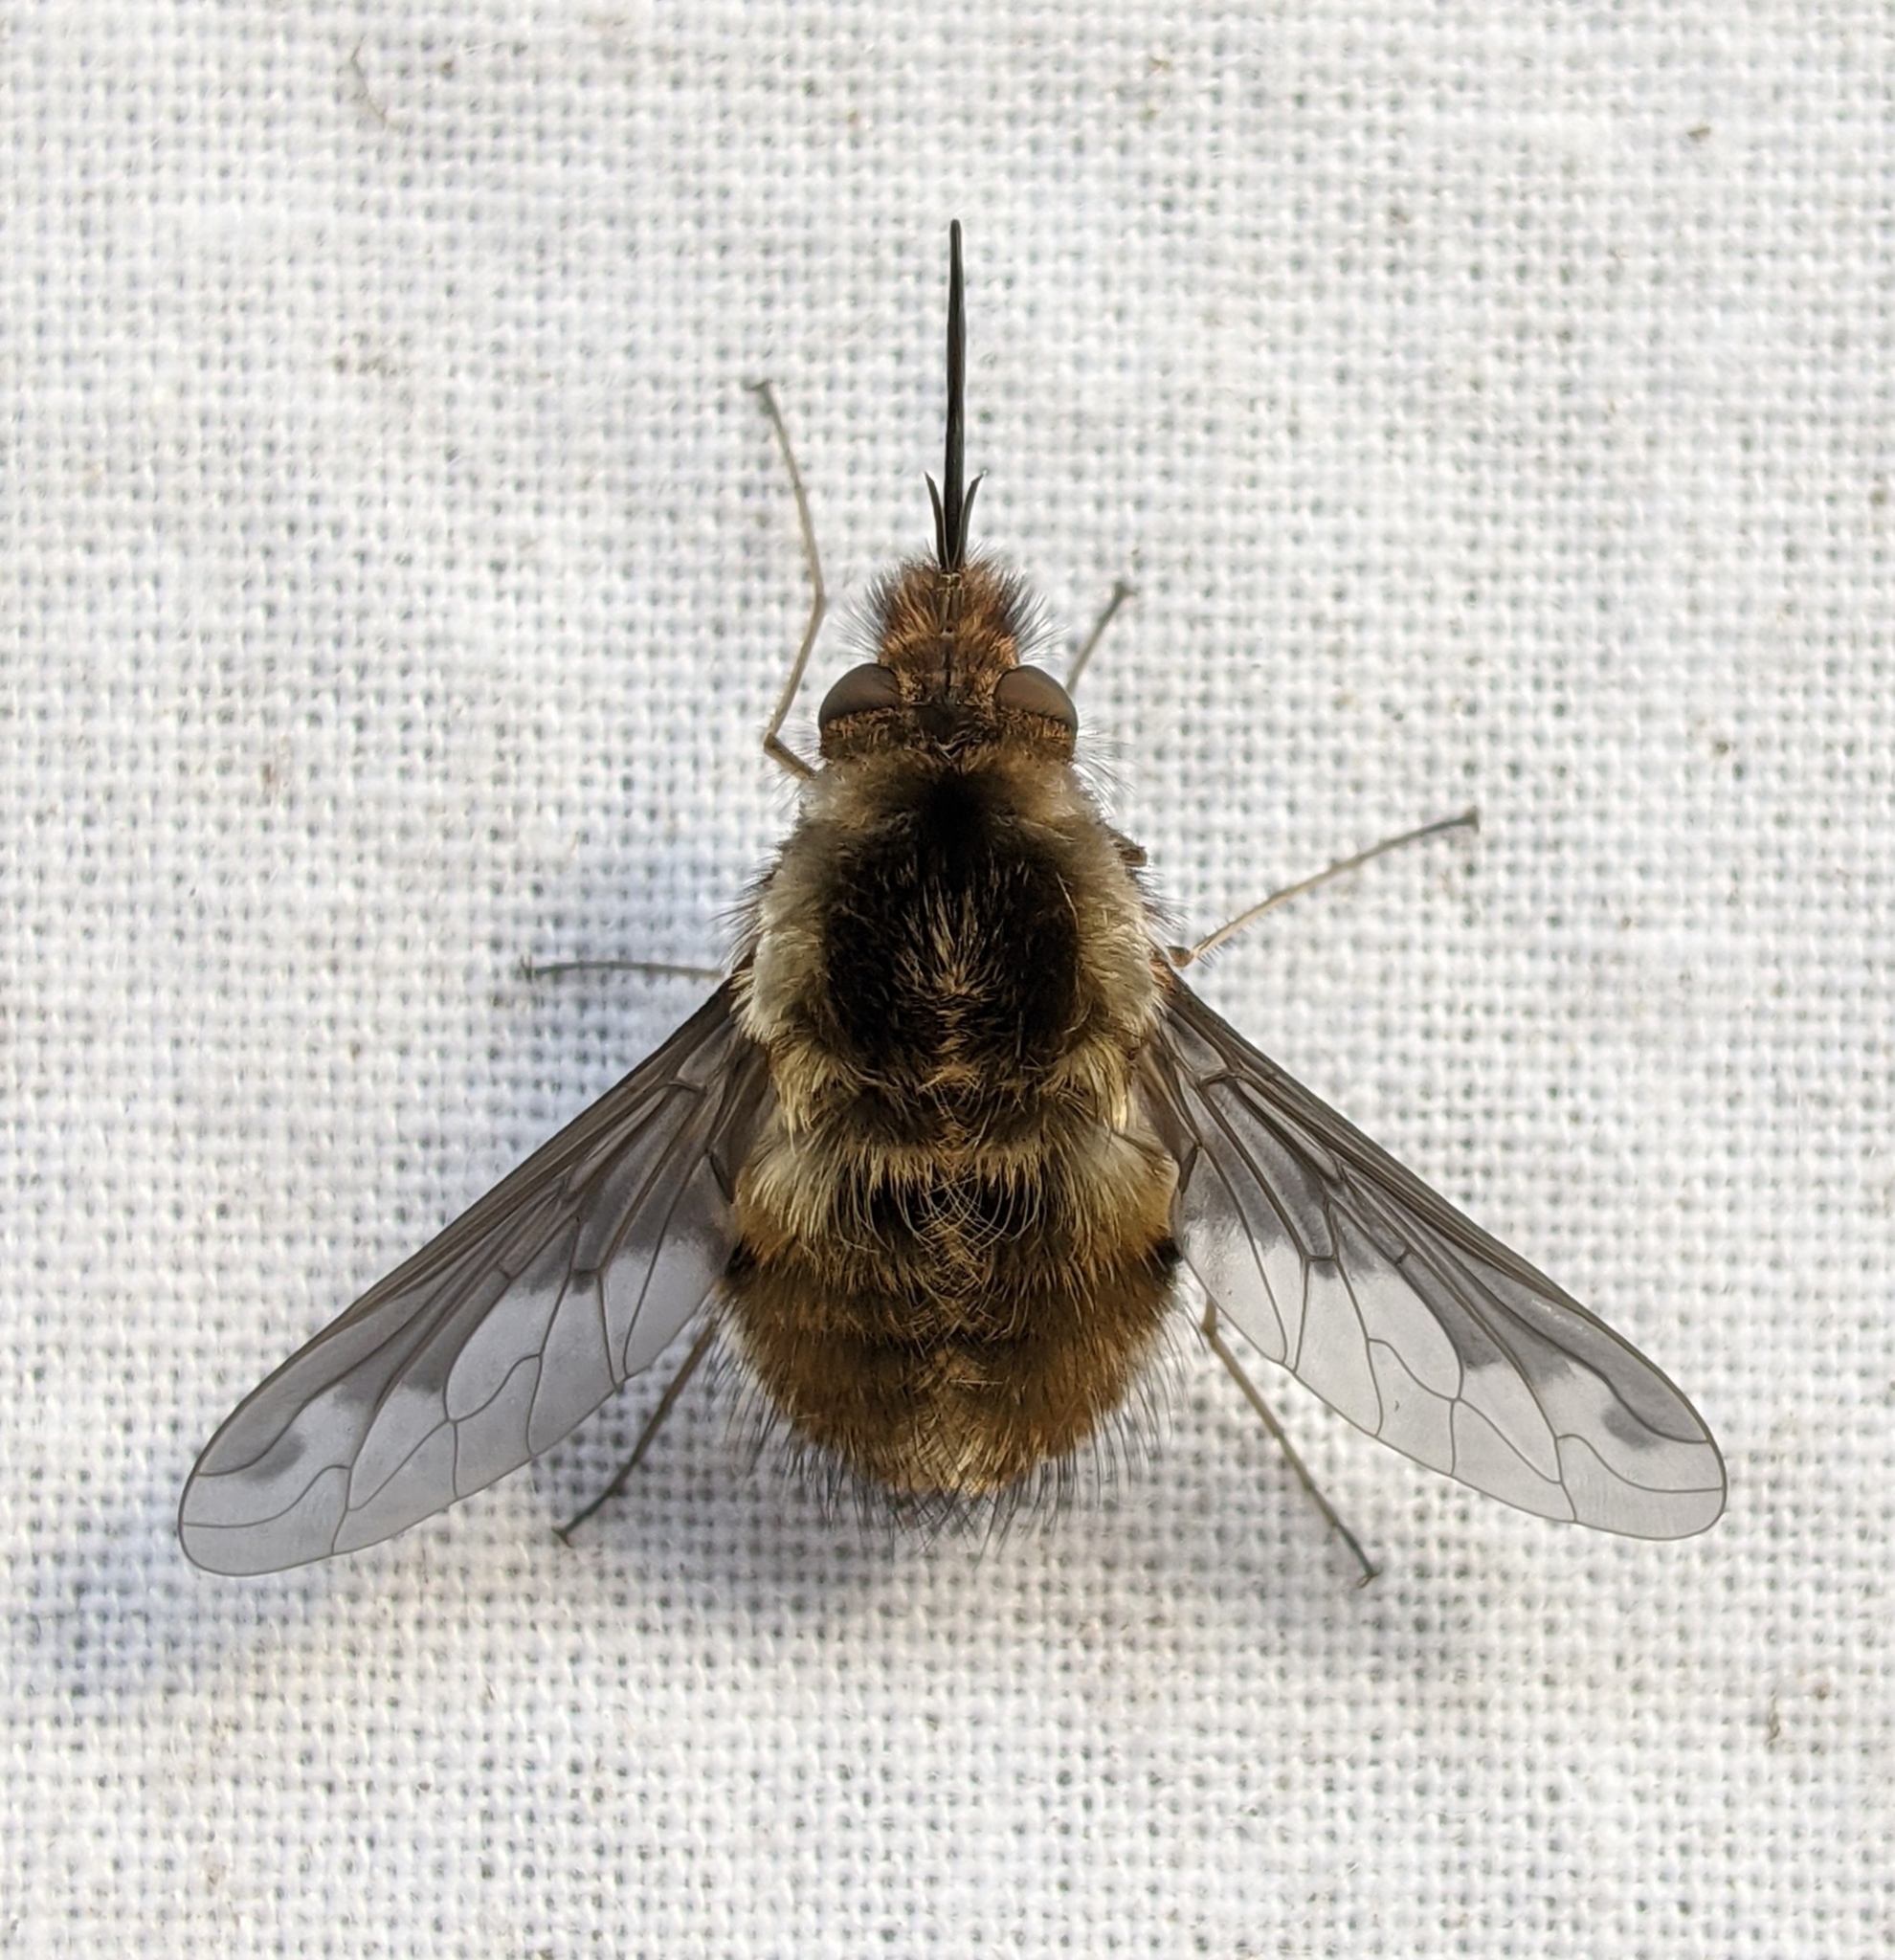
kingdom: Animalia
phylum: Arthropoda
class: Insecta
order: Diptera
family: Bombyliidae
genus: Bombylius
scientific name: Bombylius major
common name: Bee fly
